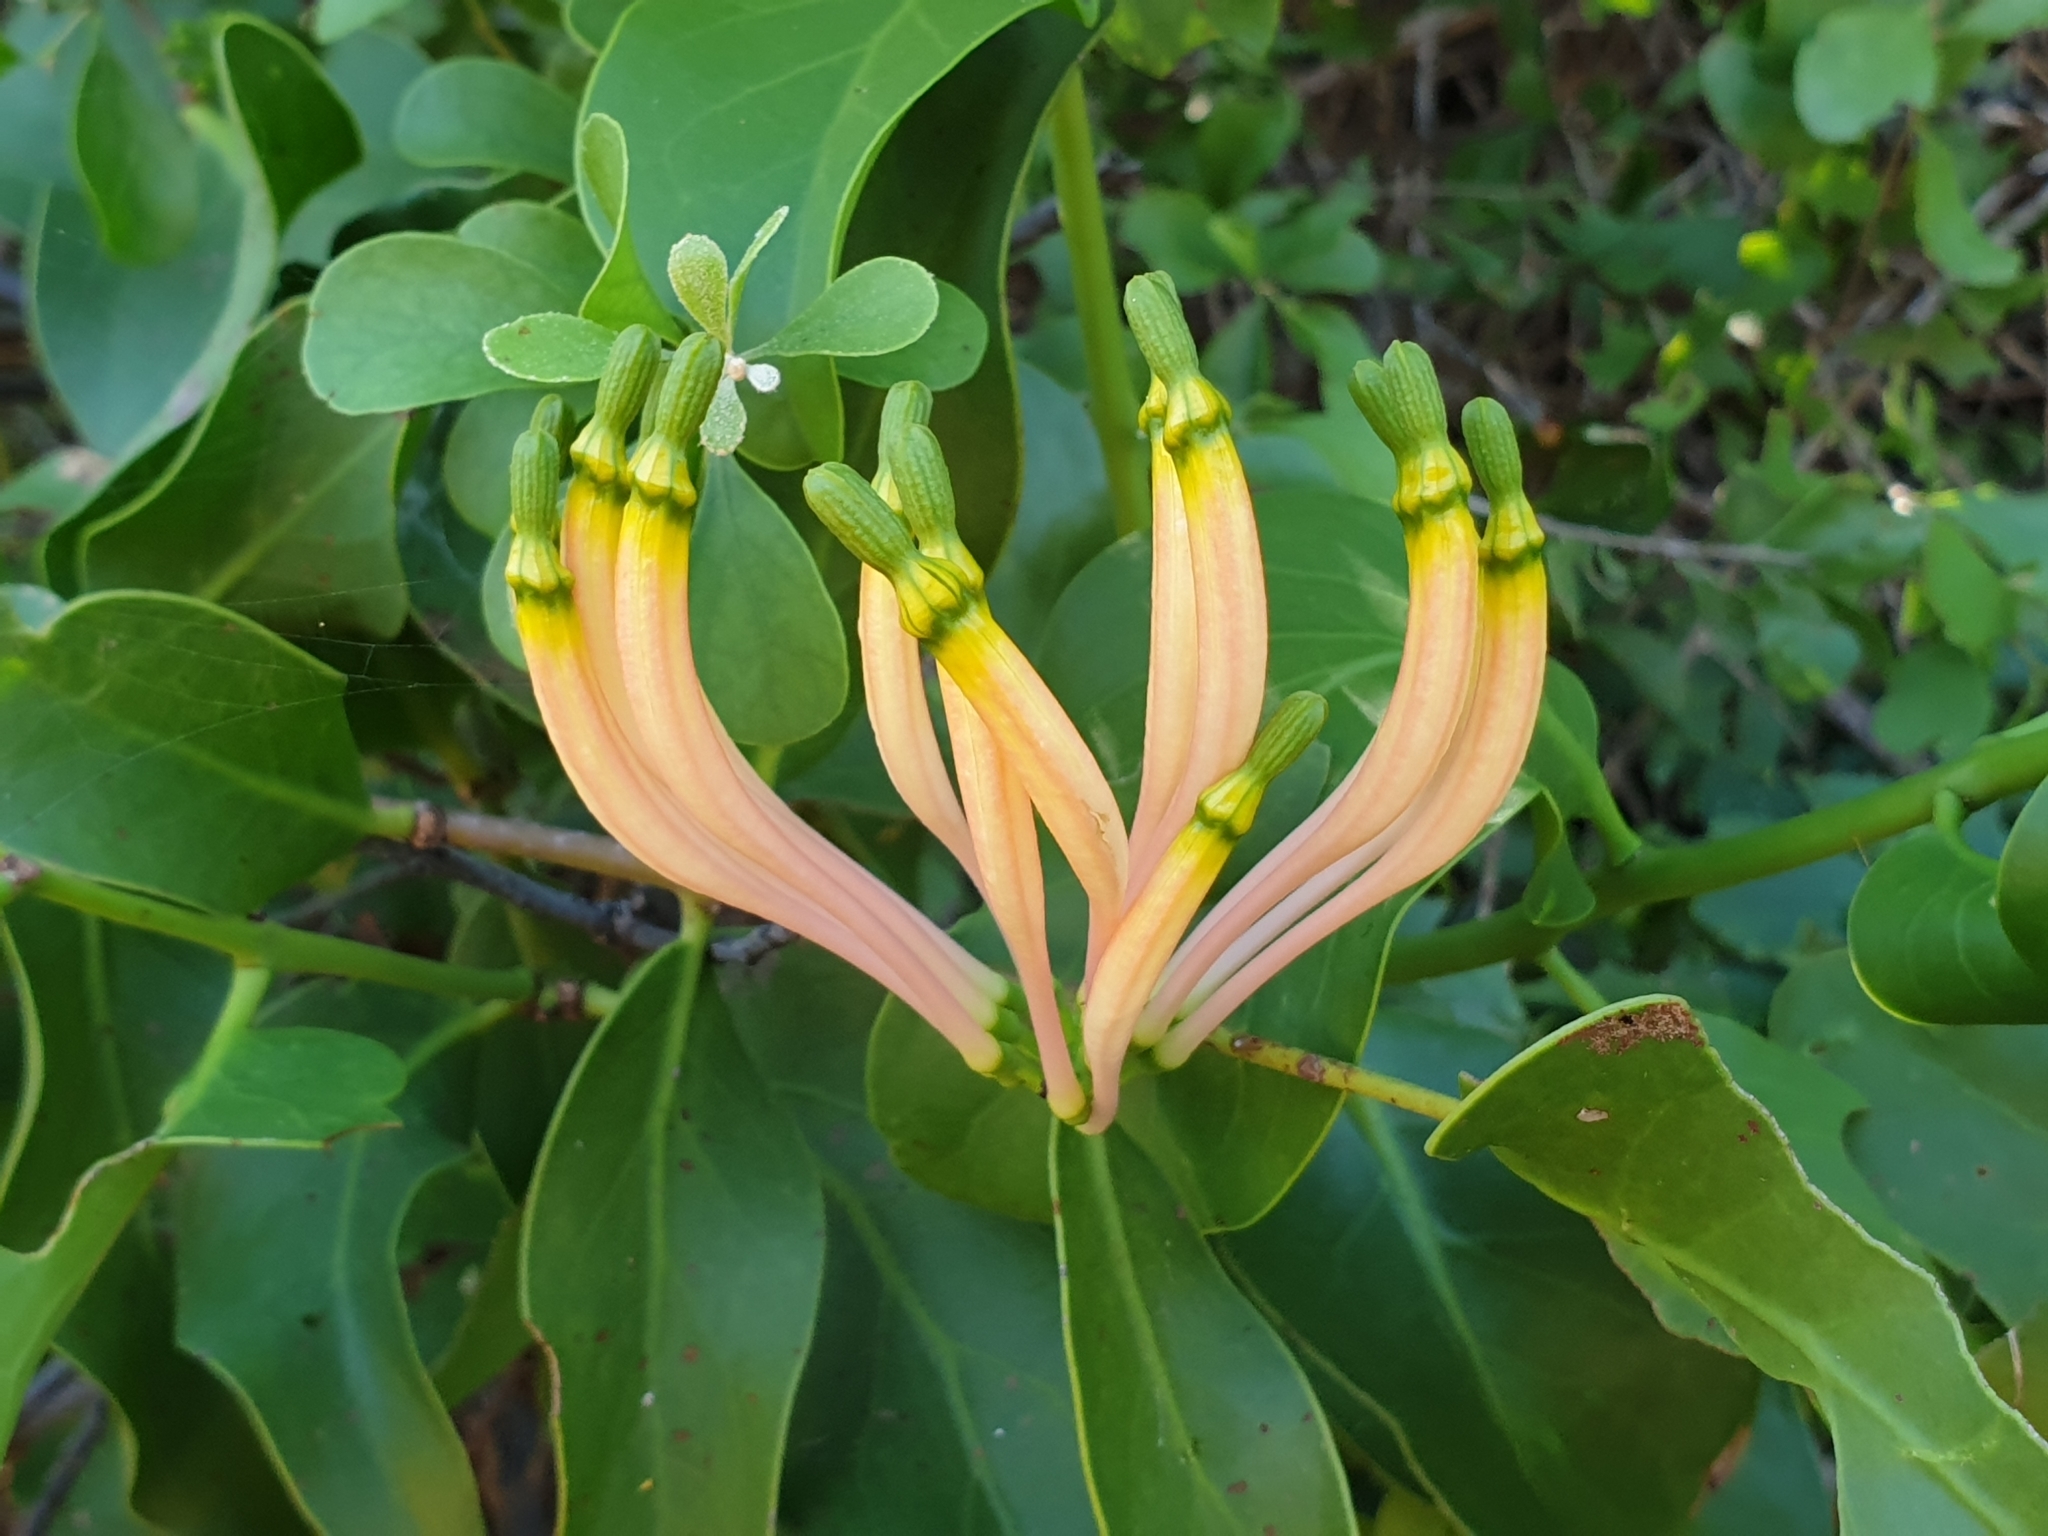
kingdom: Plantae
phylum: Tracheophyta
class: Magnoliopsida
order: Santalales
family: Loranthaceae
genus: Dendrophthoe
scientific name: Dendrophthoe falcata
